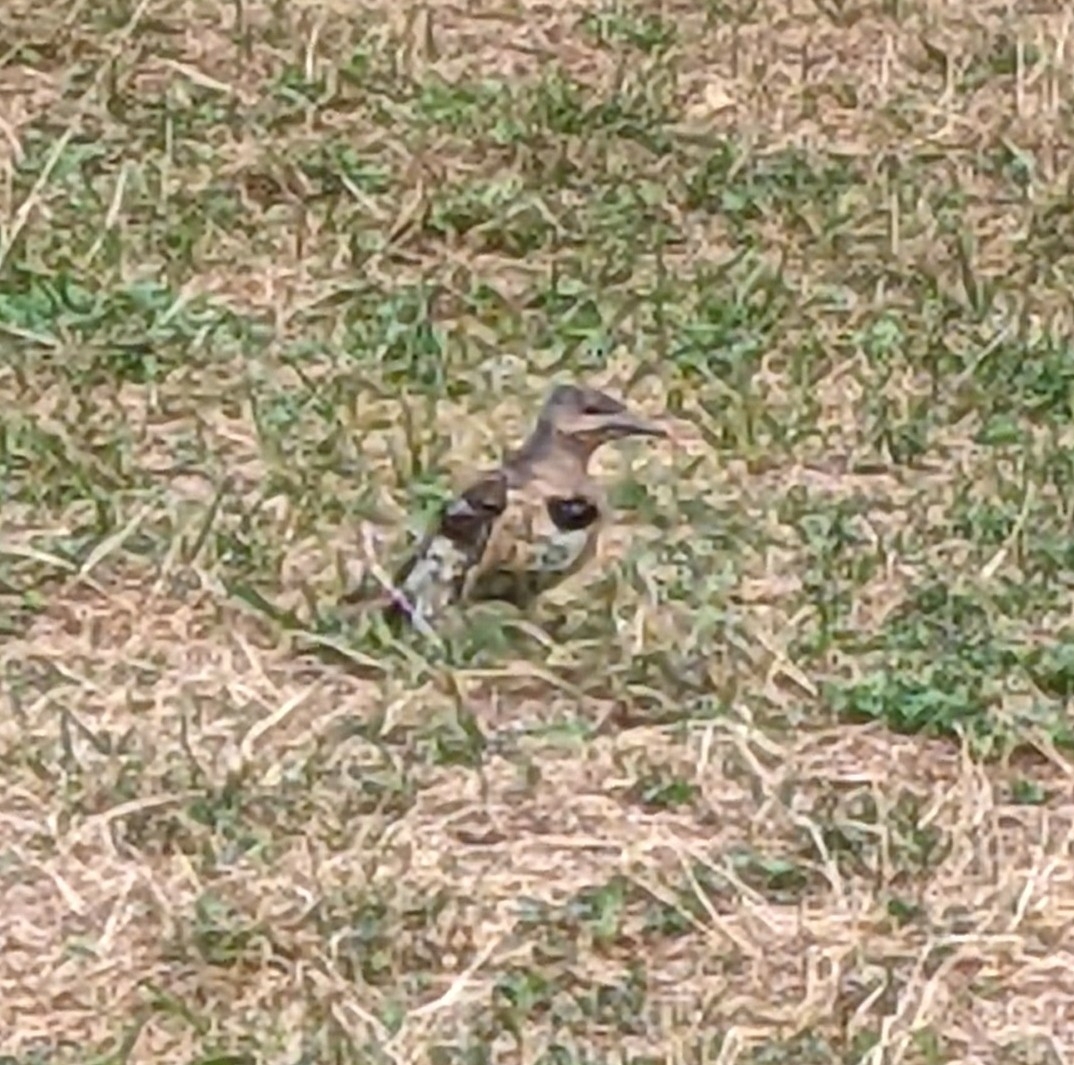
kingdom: Animalia
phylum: Chordata
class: Aves
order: Piciformes
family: Picidae
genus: Colaptes
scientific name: Colaptes auratus
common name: Northern flicker
